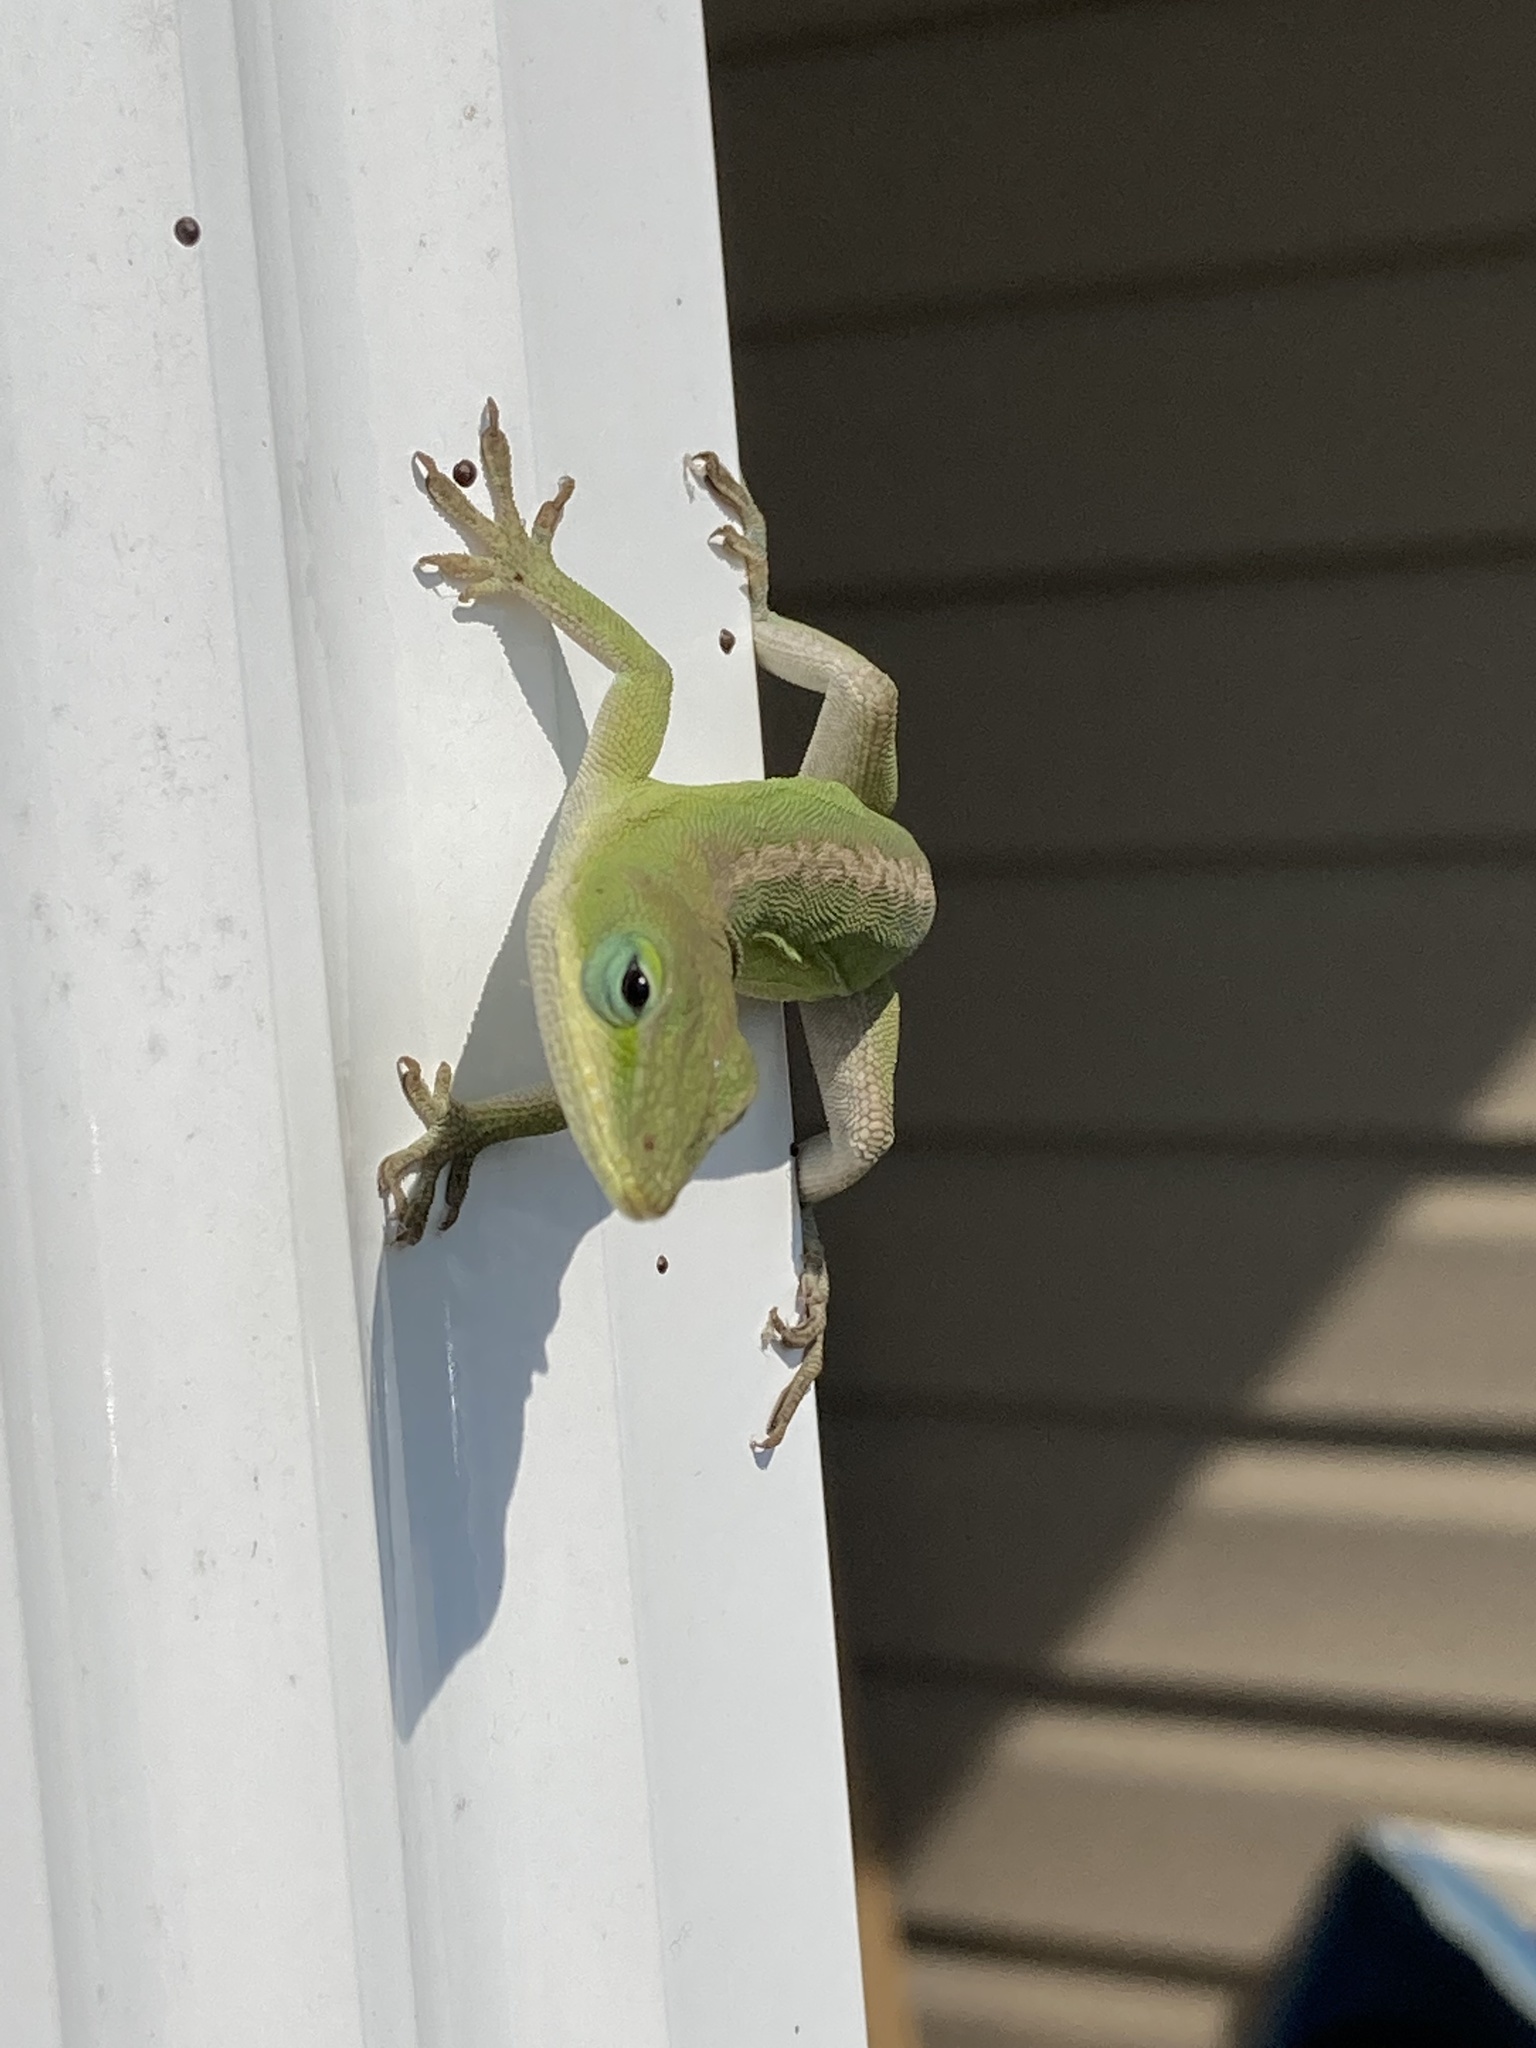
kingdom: Animalia
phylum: Chordata
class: Squamata
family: Dactyloidae
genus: Anolis
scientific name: Anolis carolinensis
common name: Green anole
